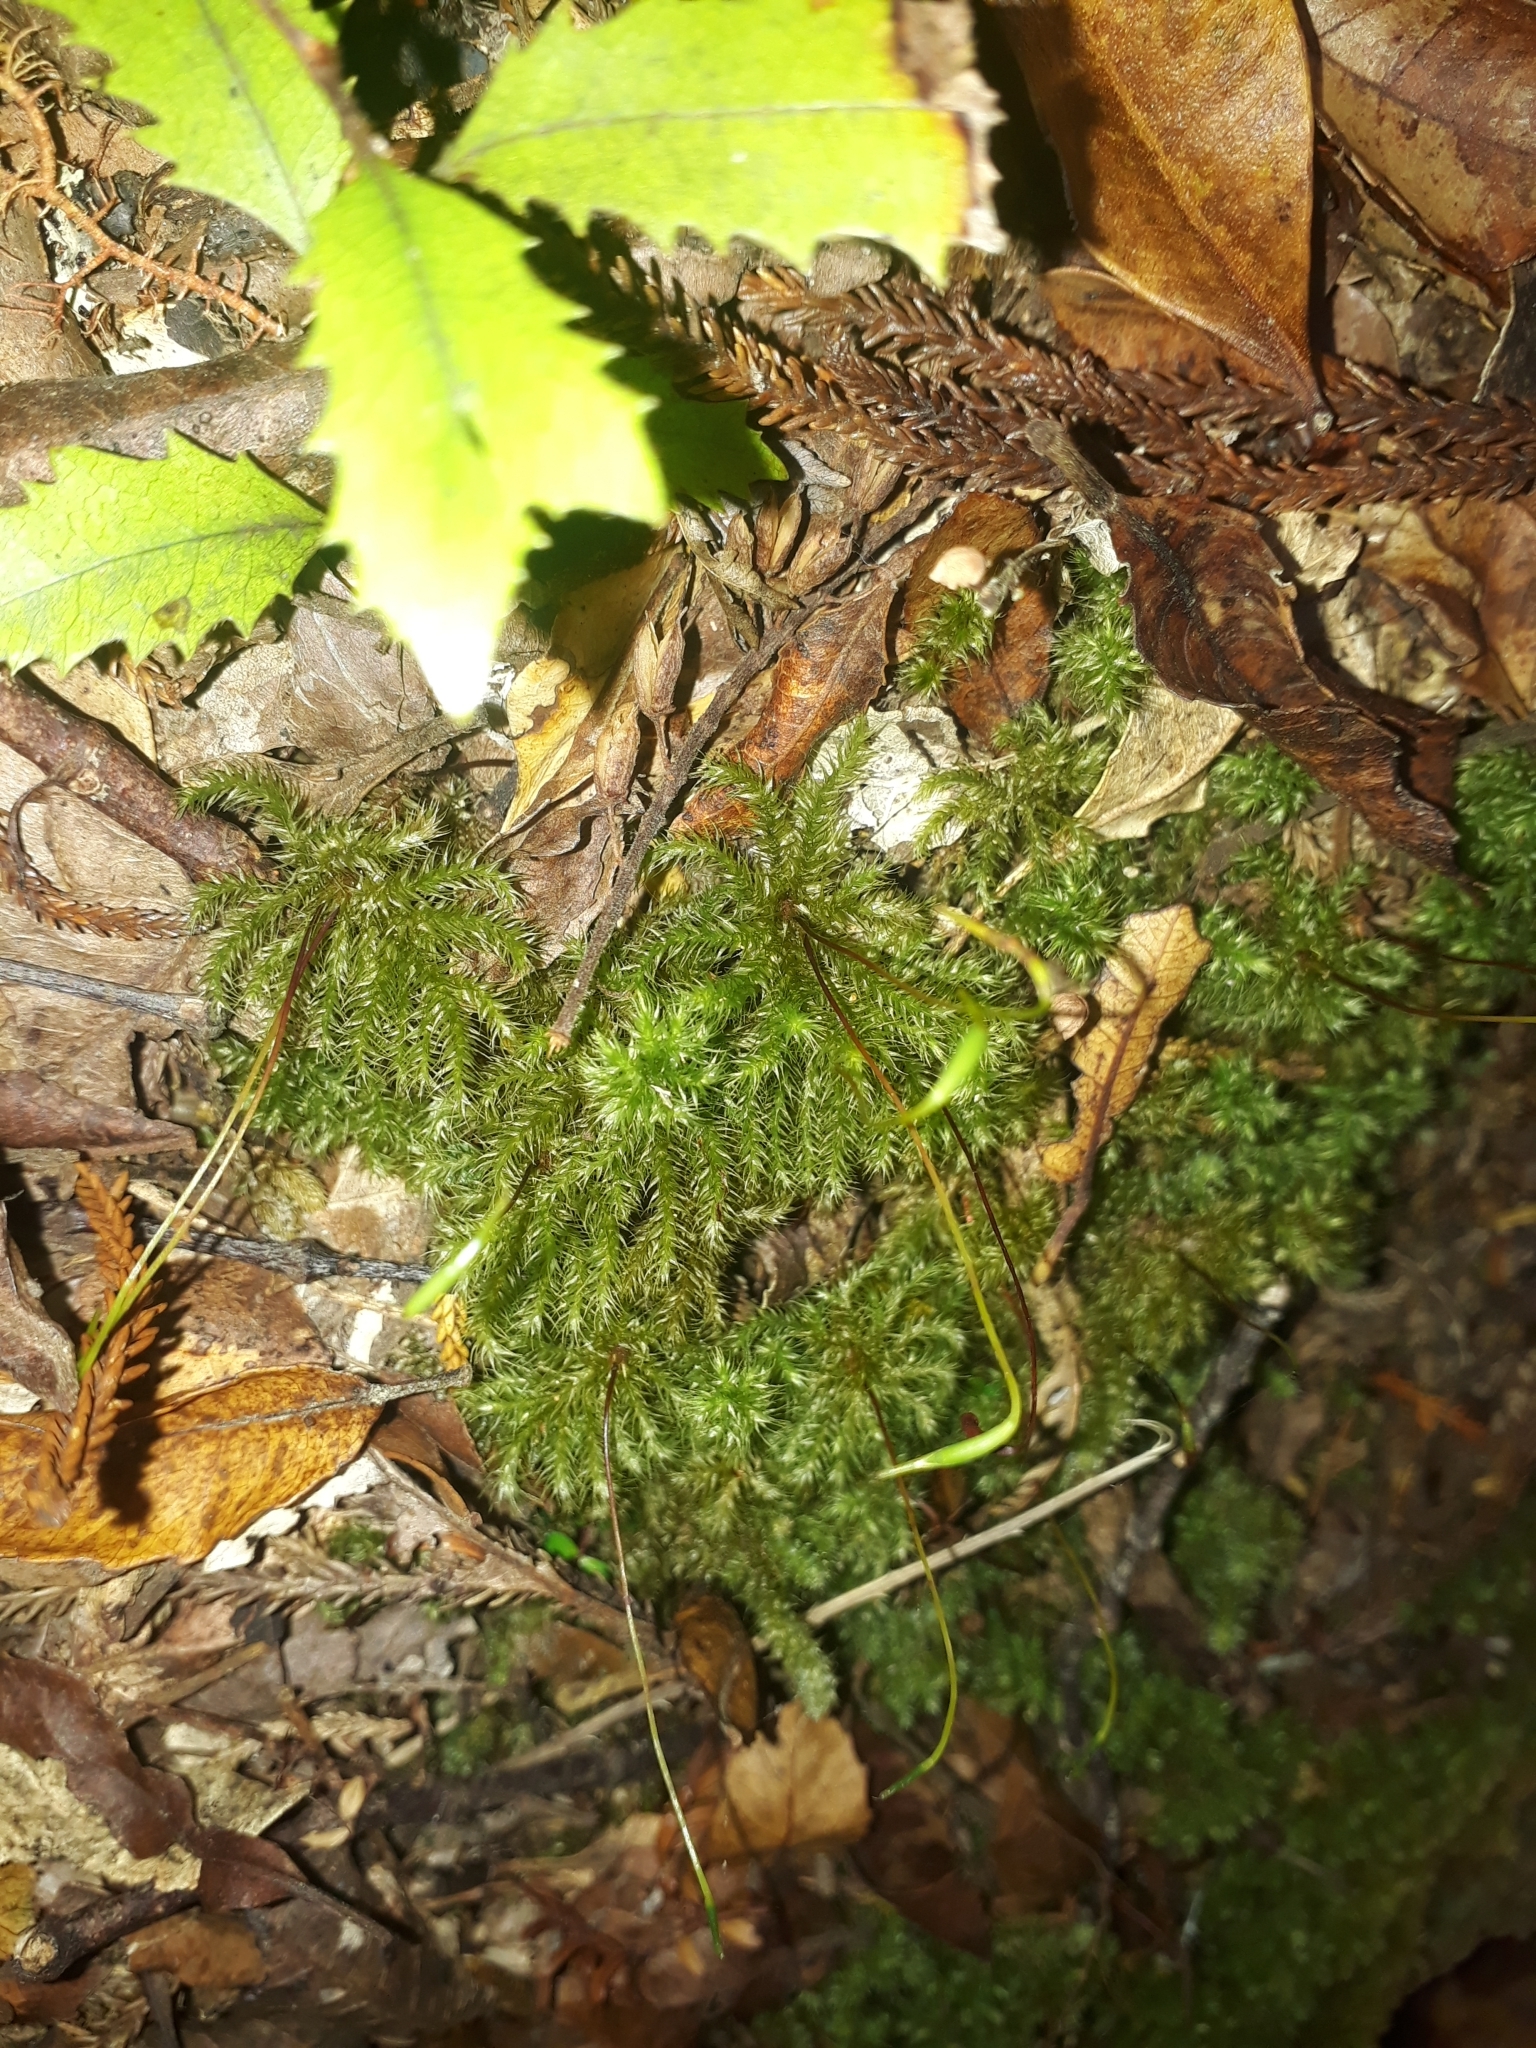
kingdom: Plantae
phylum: Bryophyta
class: Bryopsida
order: Hypnodendrales
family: Spiridentaceae
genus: Mniodendron
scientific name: Mniodendron colensoi
